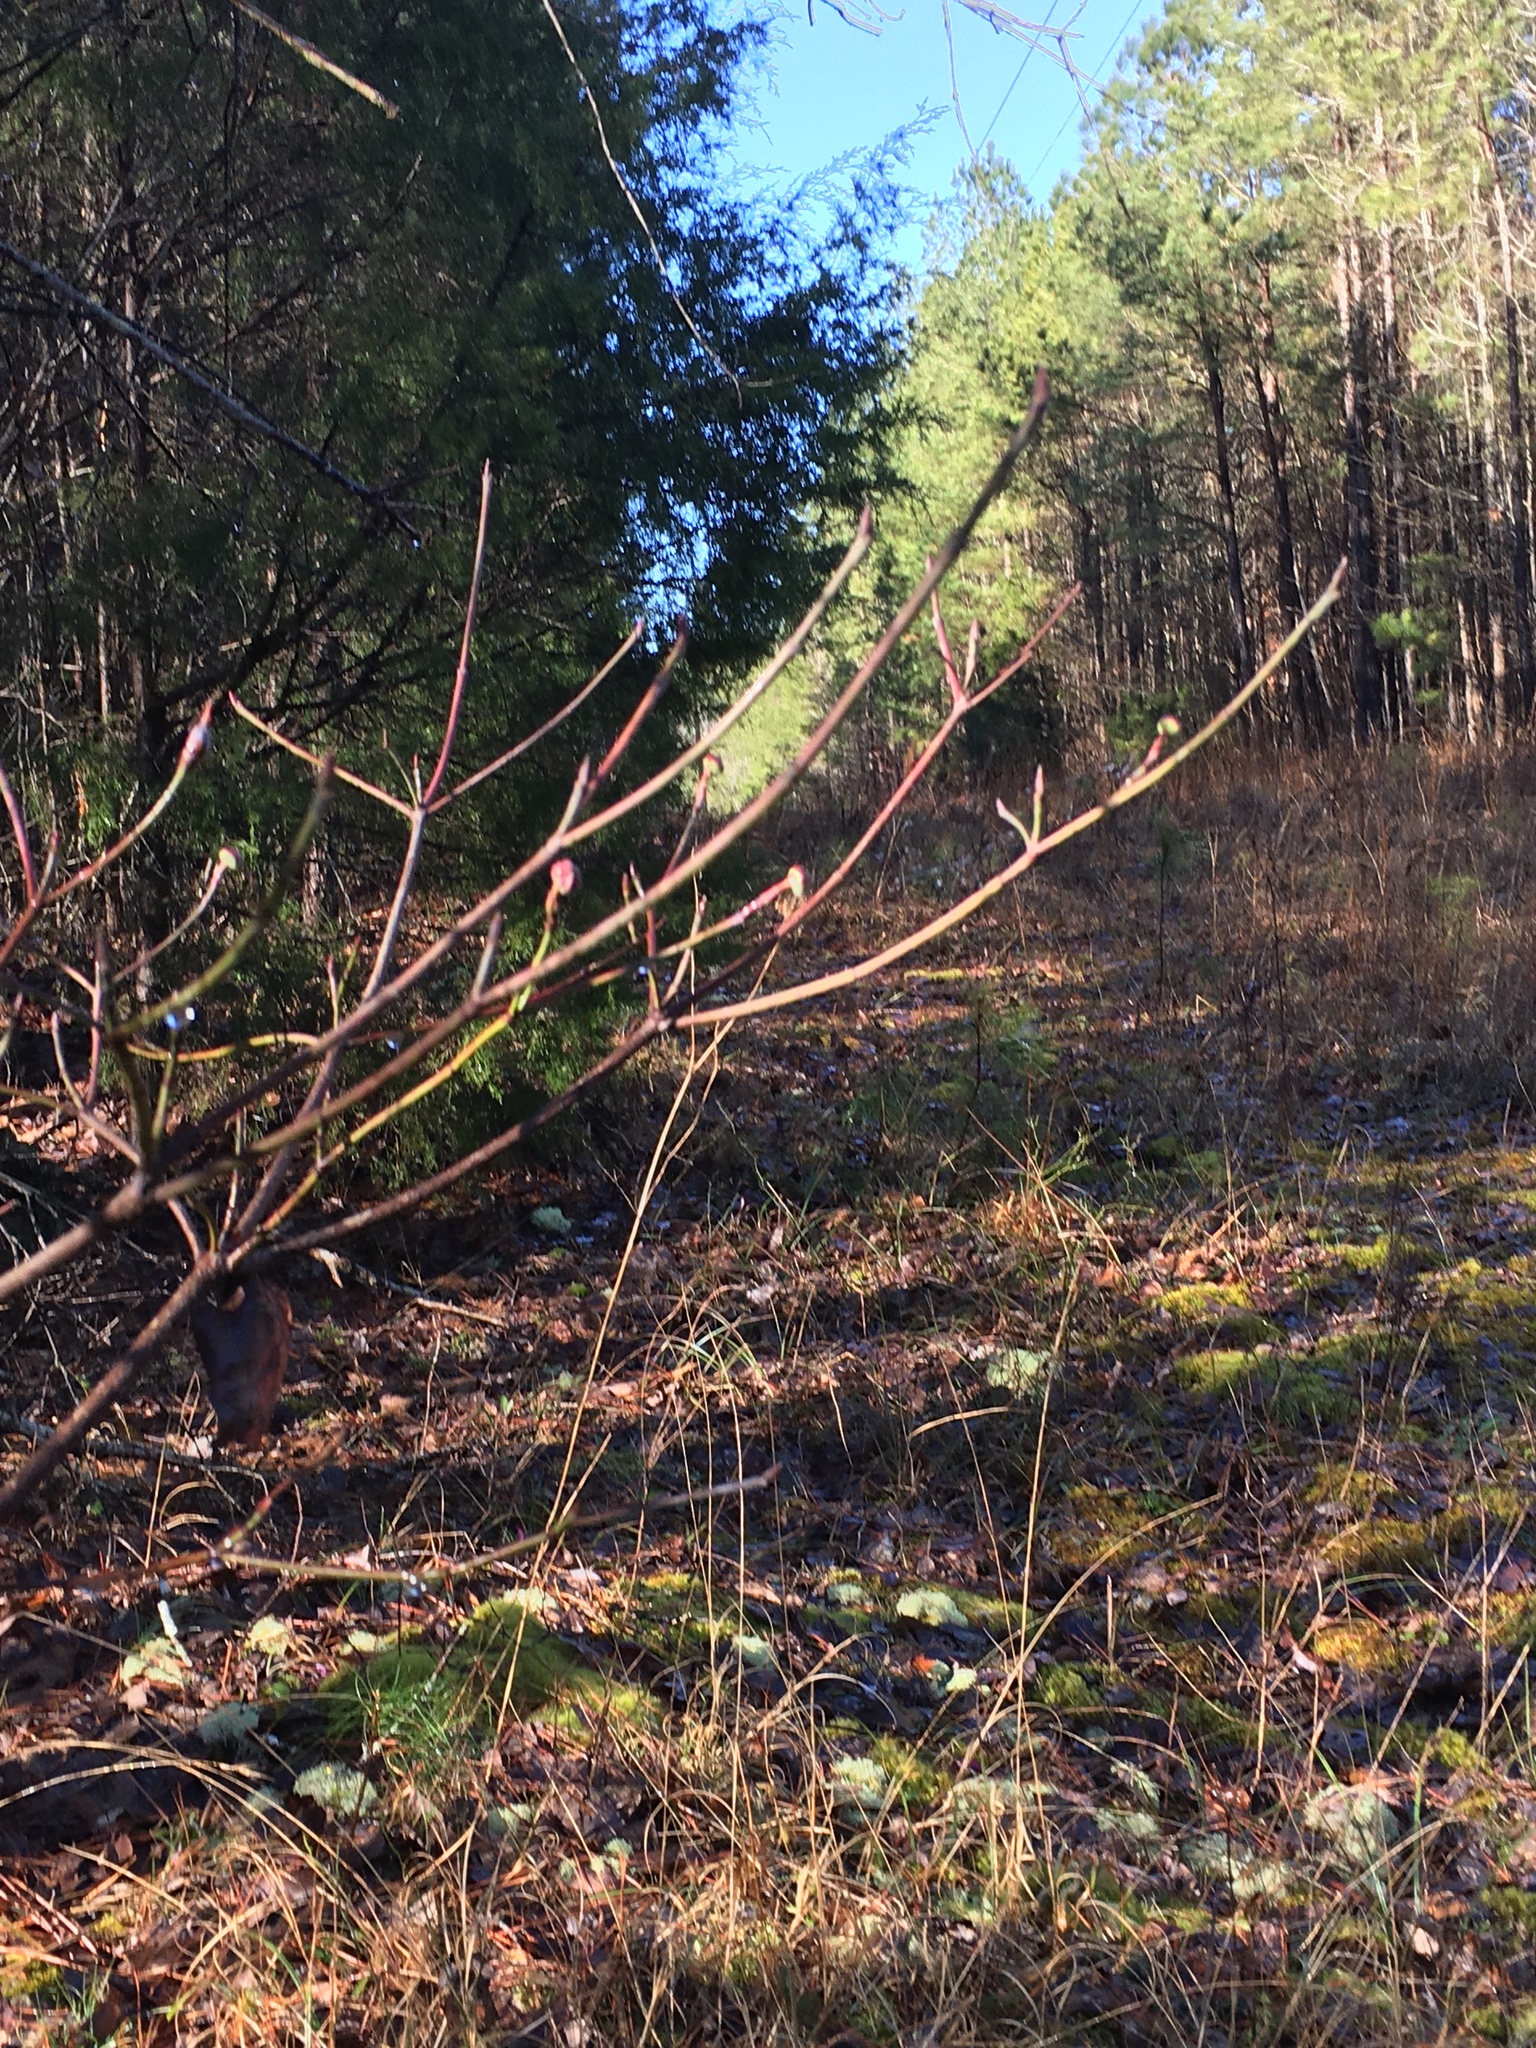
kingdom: Plantae
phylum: Tracheophyta
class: Magnoliopsida
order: Cornales
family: Cornaceae
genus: Cornus
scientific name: Cornus florida
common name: Flowering dogwood
